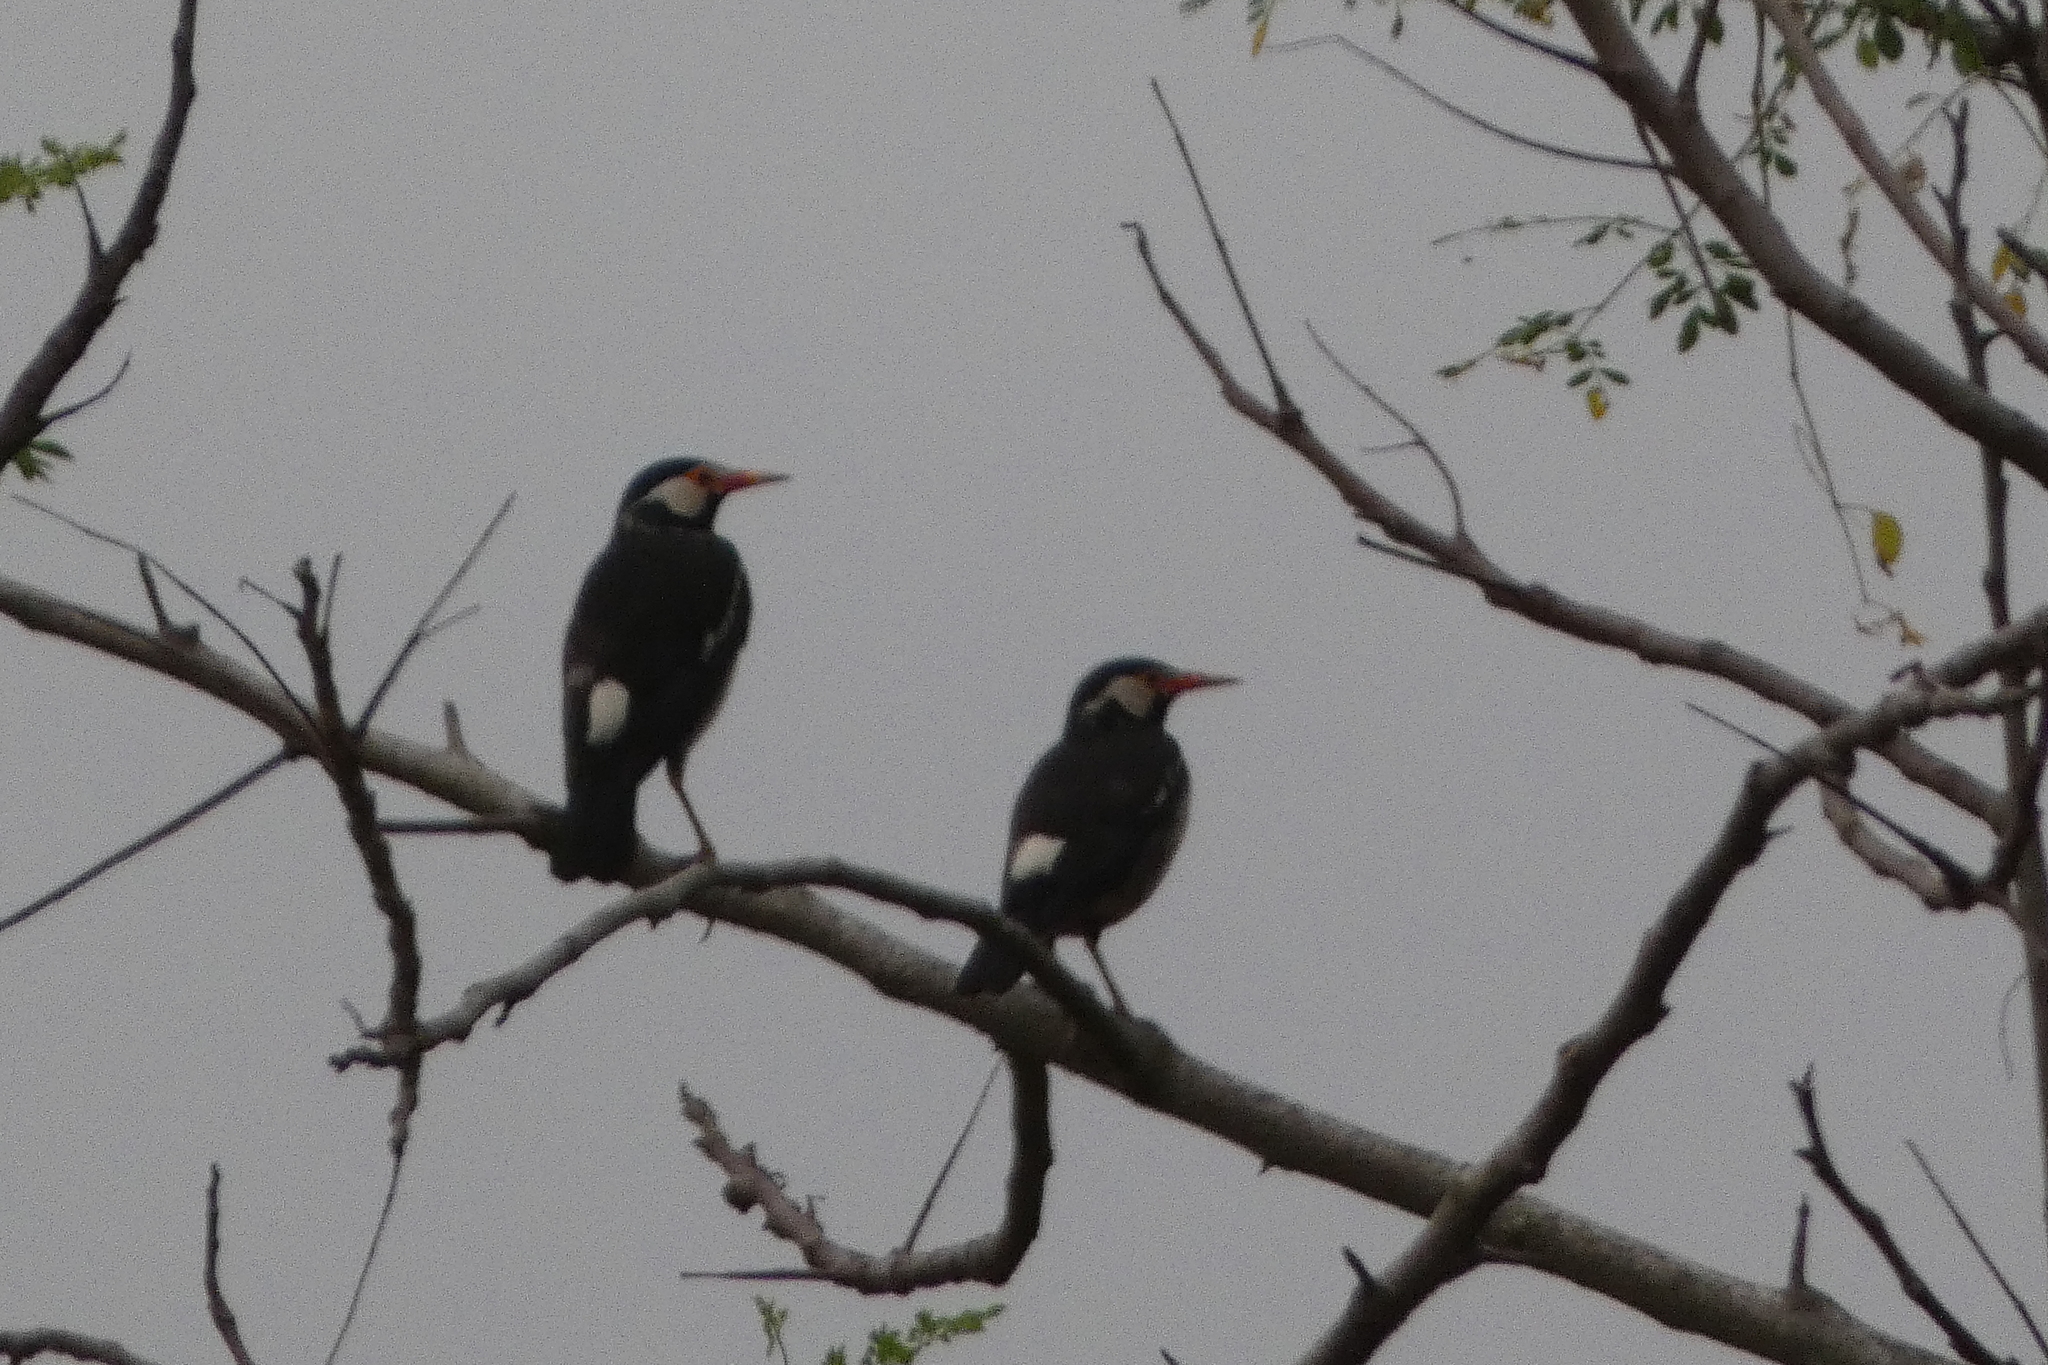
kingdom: Animalia
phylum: Chordata
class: Aves
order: Passeriformes
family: Sturnidae
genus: Gracupica
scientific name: Gracupica contra
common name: Pied myna
